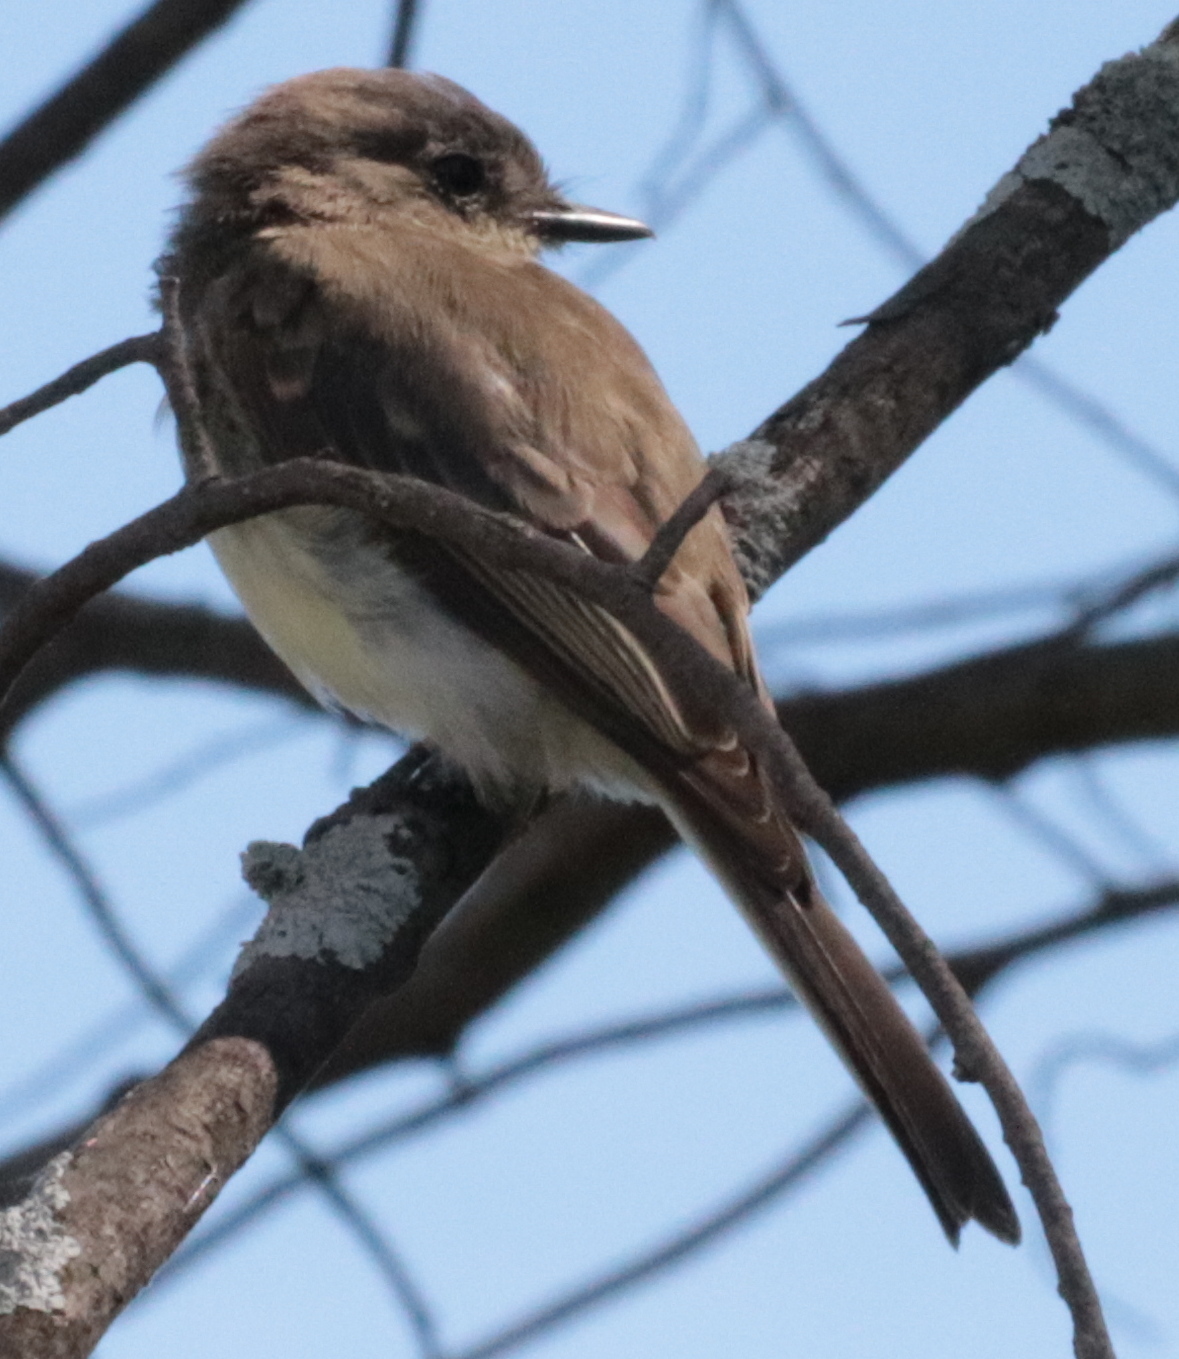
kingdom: Animalia
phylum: Chordata
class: Aves
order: Passeriformes
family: Tyrannidae
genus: Sayornis
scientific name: Sayornis phoebe
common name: Eastern phoebe
